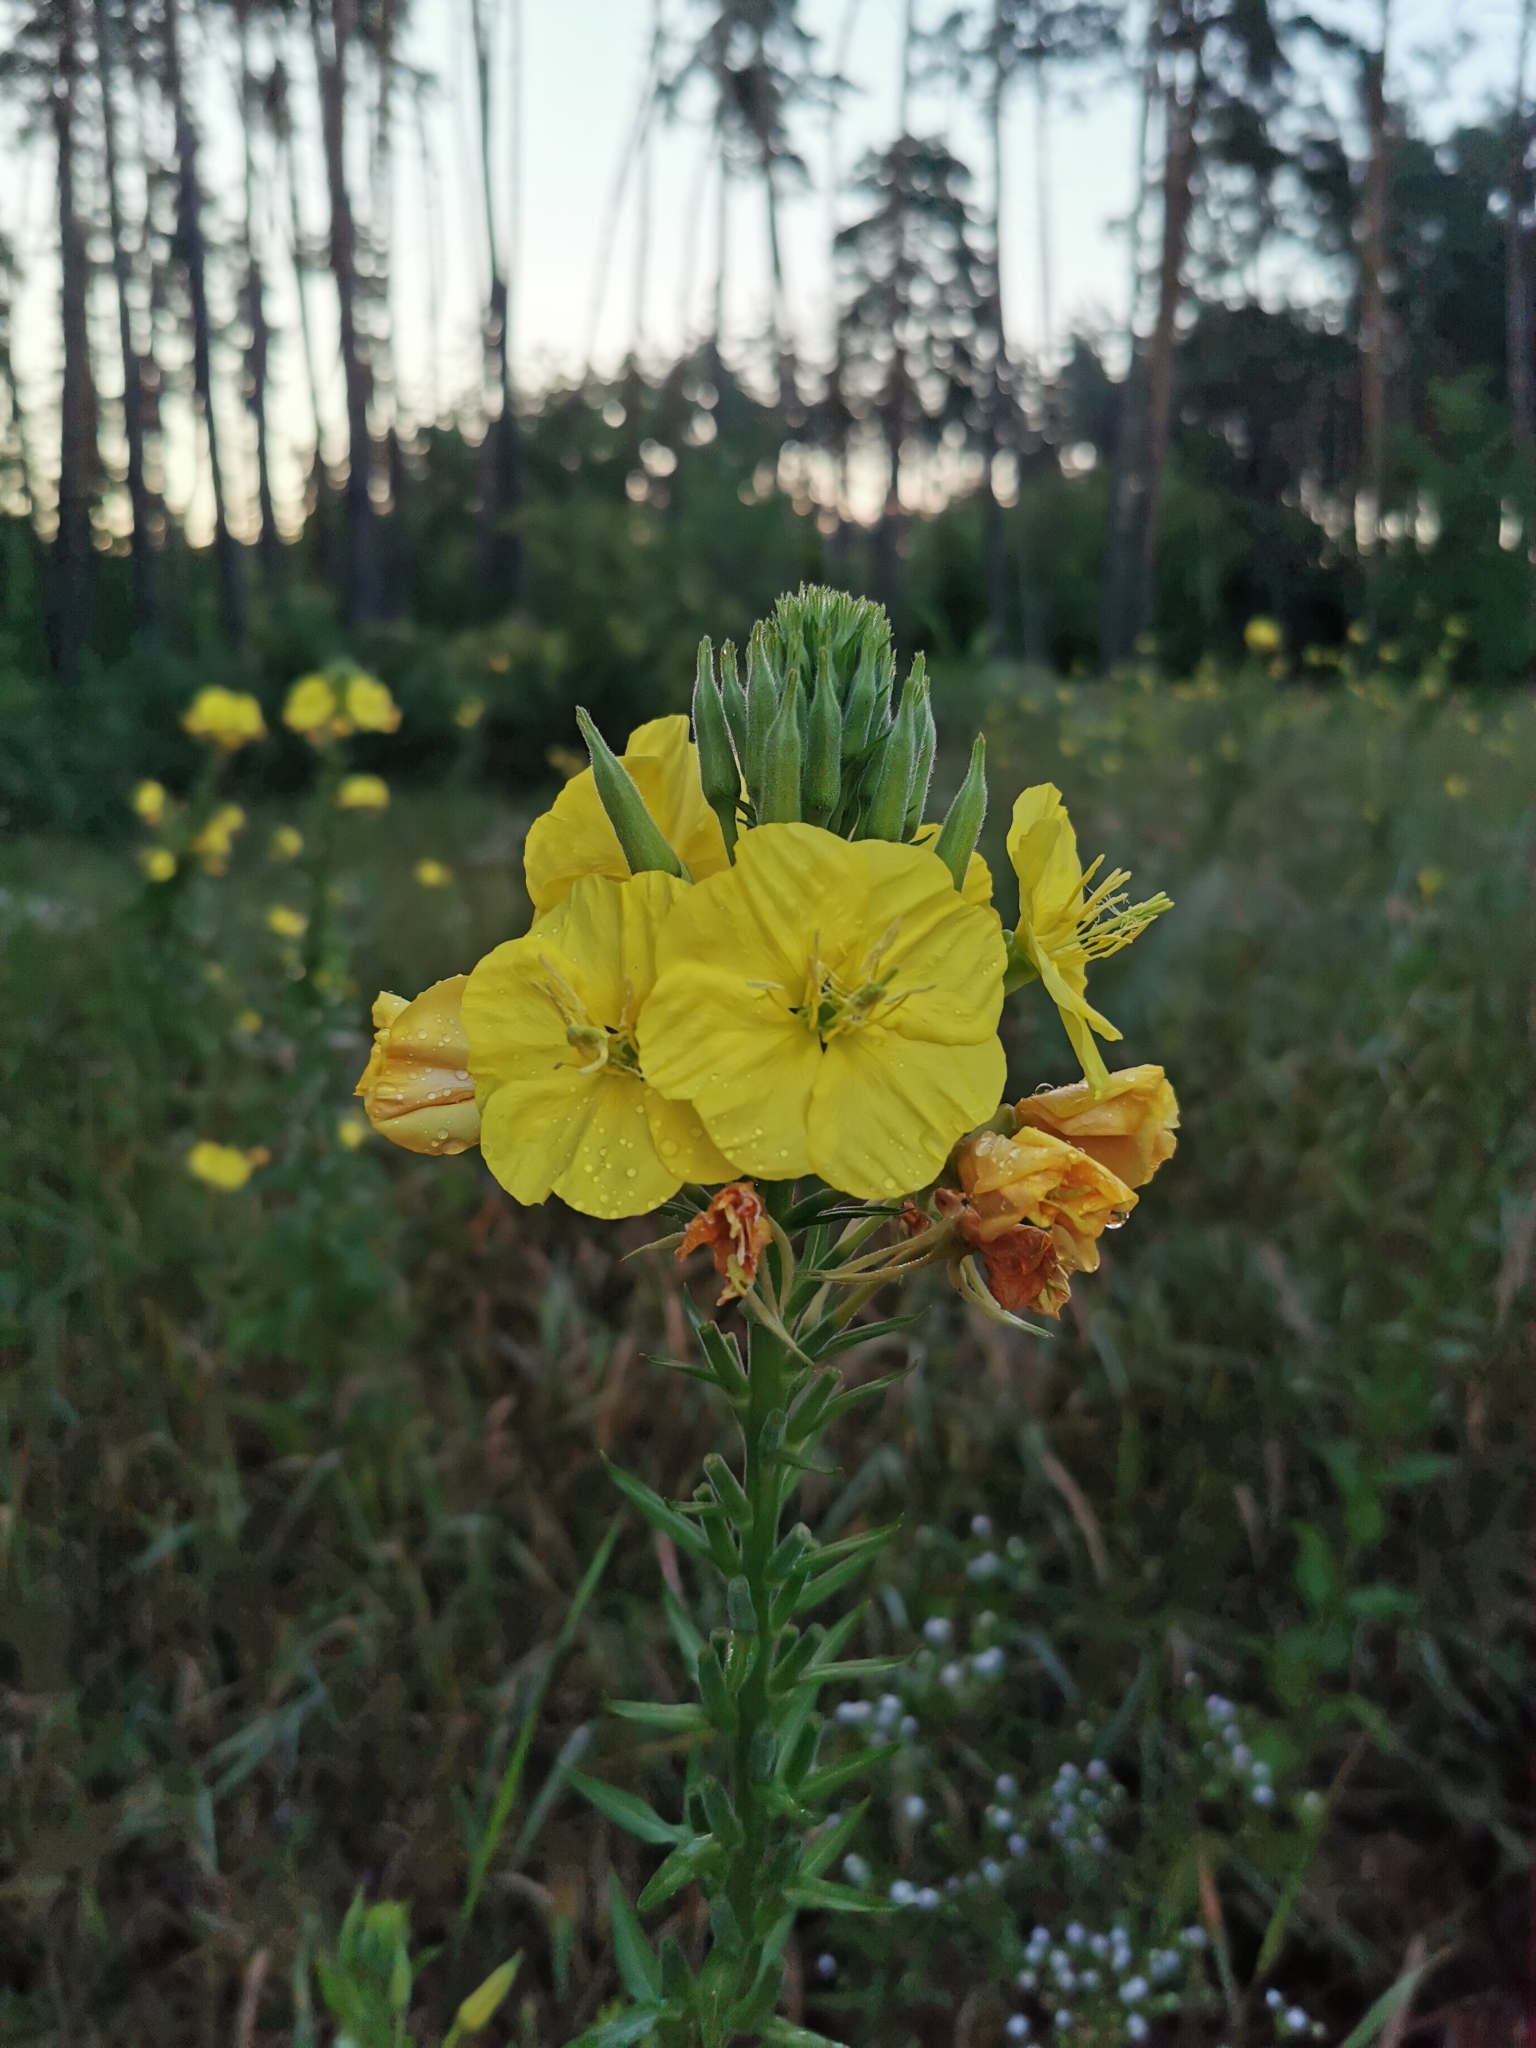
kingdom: Plantae
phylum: Tracheophyta
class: Magnoliopsida
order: Myrtales
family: Onagraceae
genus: Oenothera
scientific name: Oenothera biennis
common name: Common evening-primrose
